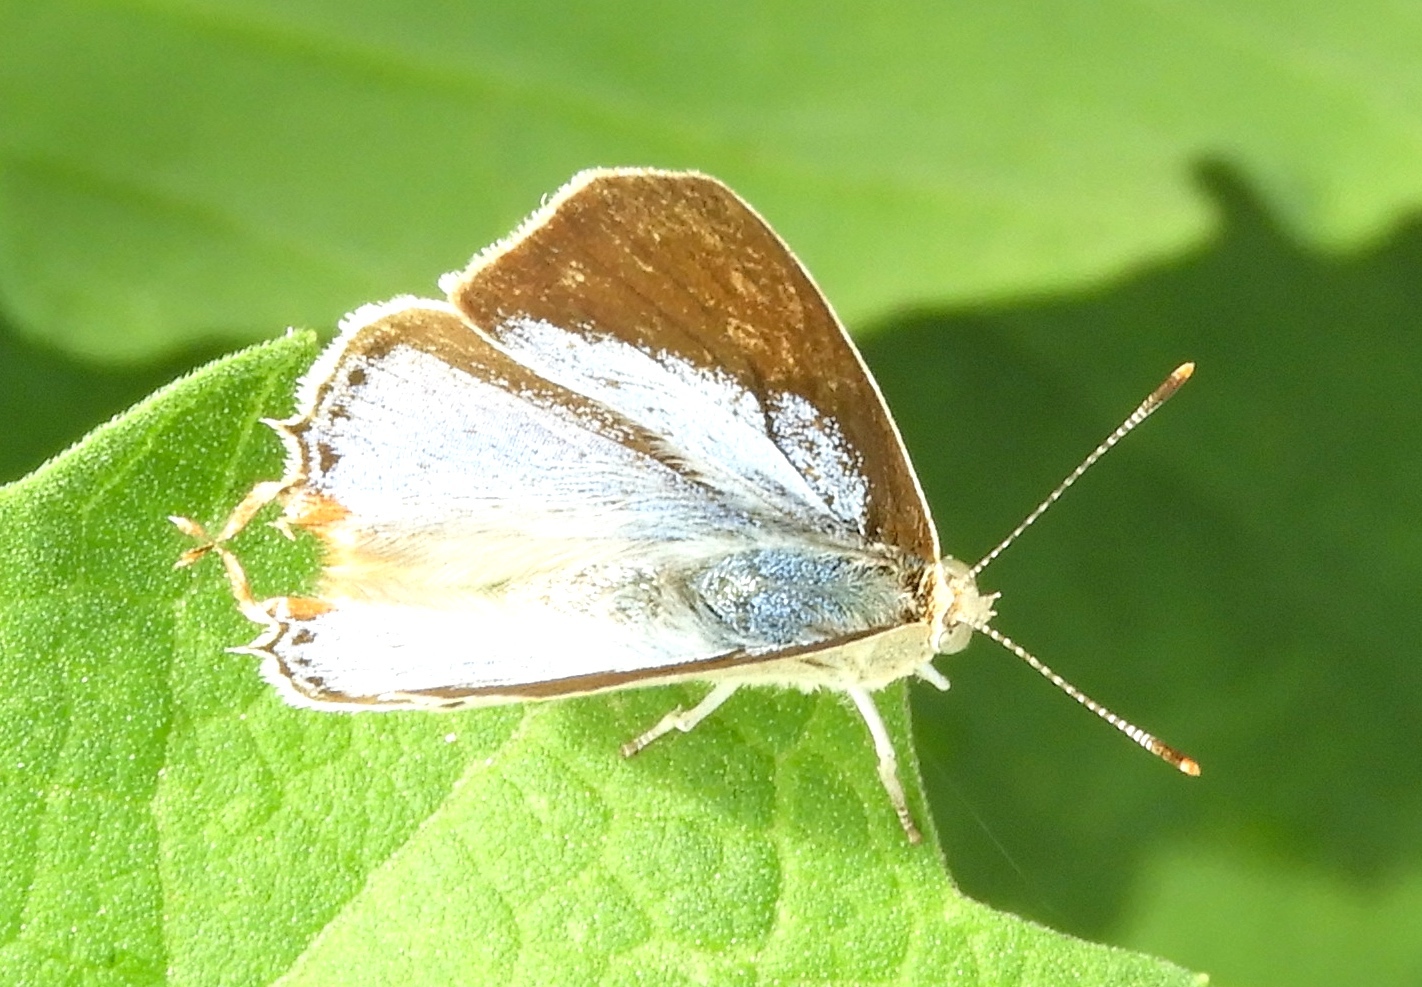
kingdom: Animalia
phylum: Arthropoda
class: Insecta
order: Lepidoptera
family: Lycaenidae
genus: Dolymorpha
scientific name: Dolymorpha jada
